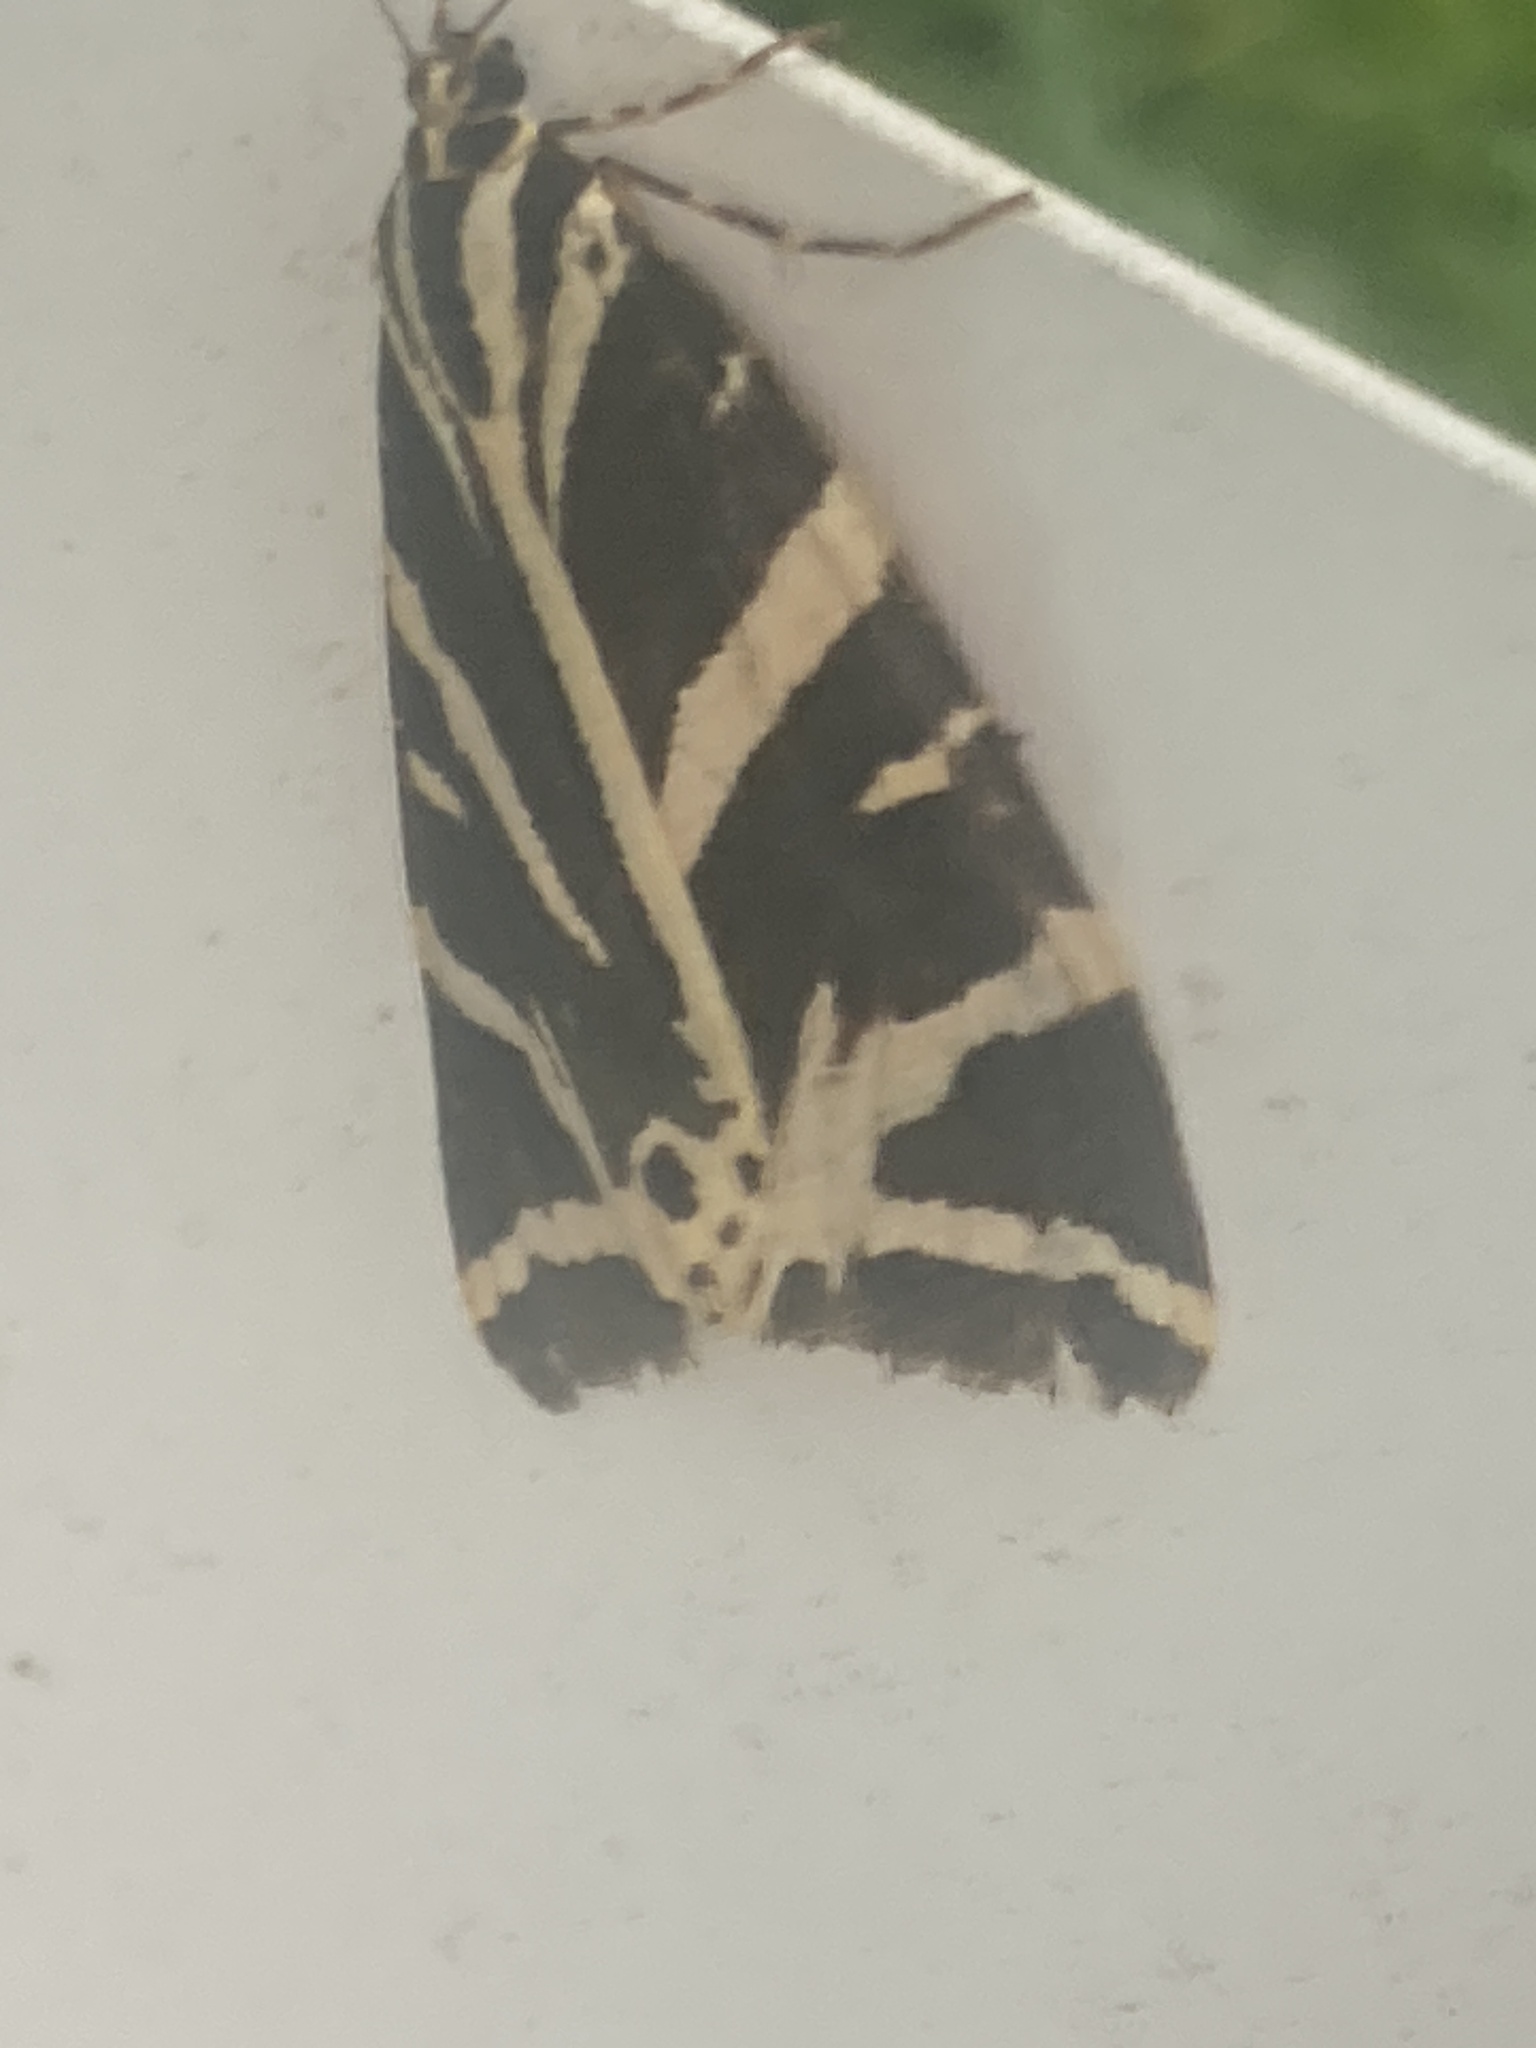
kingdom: Animalia
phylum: Arthropoda
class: Insecta
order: Lepidoptera
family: Erebidae
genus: Euplagia
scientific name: Euplagia quadripunctaria
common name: Jersey tiger
